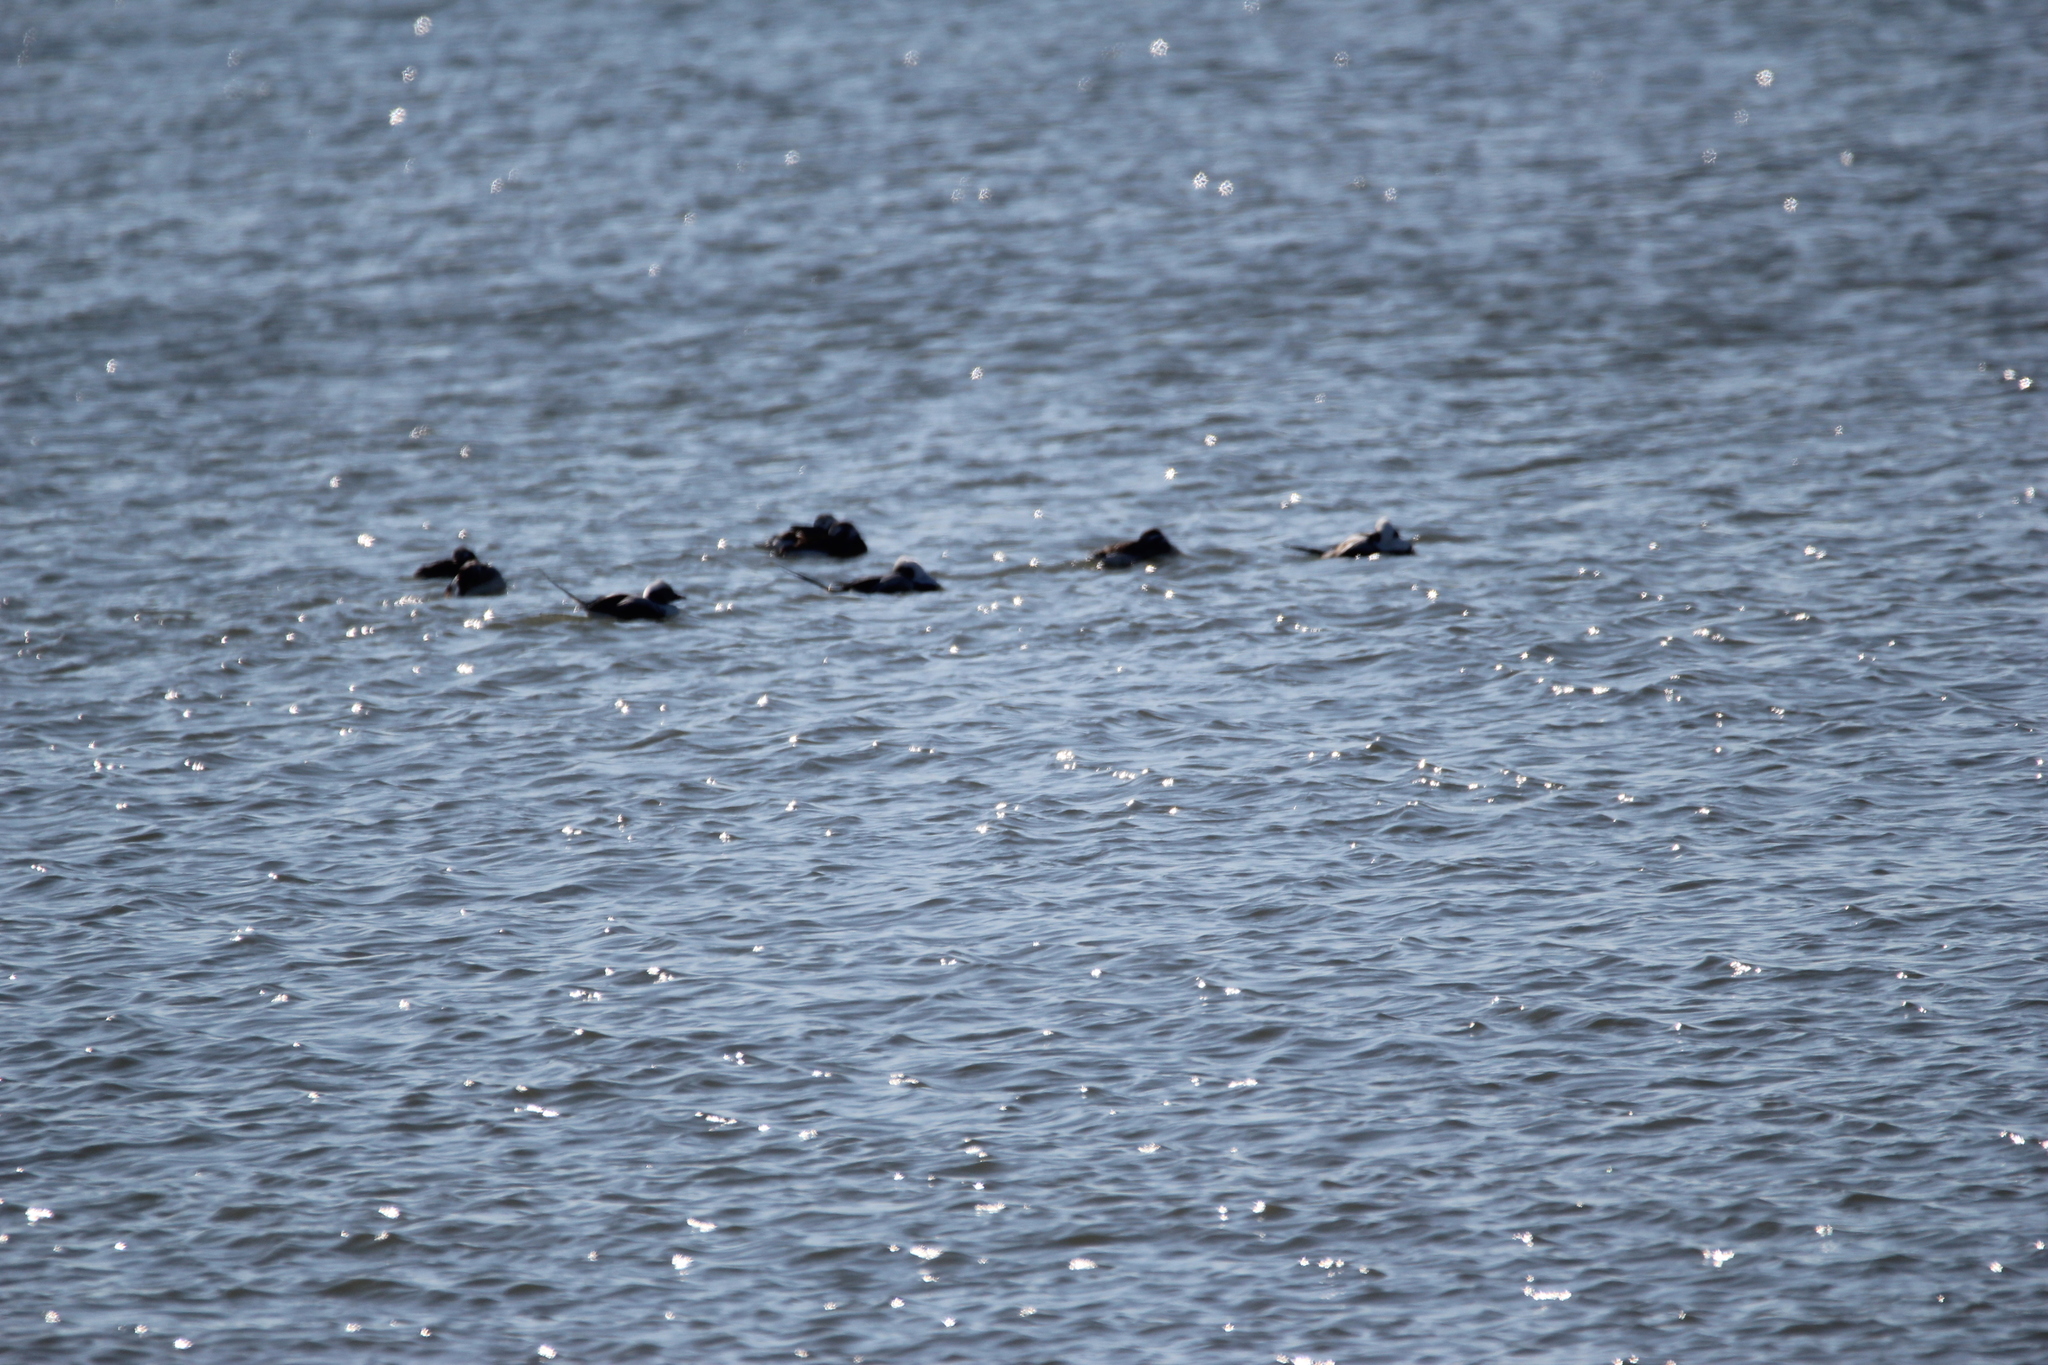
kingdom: Animalia
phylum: Chordata
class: Aves
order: Anseriformes
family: Anatidae
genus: Clangula
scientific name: Clangula hyemalis
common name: Long-tailed duck
